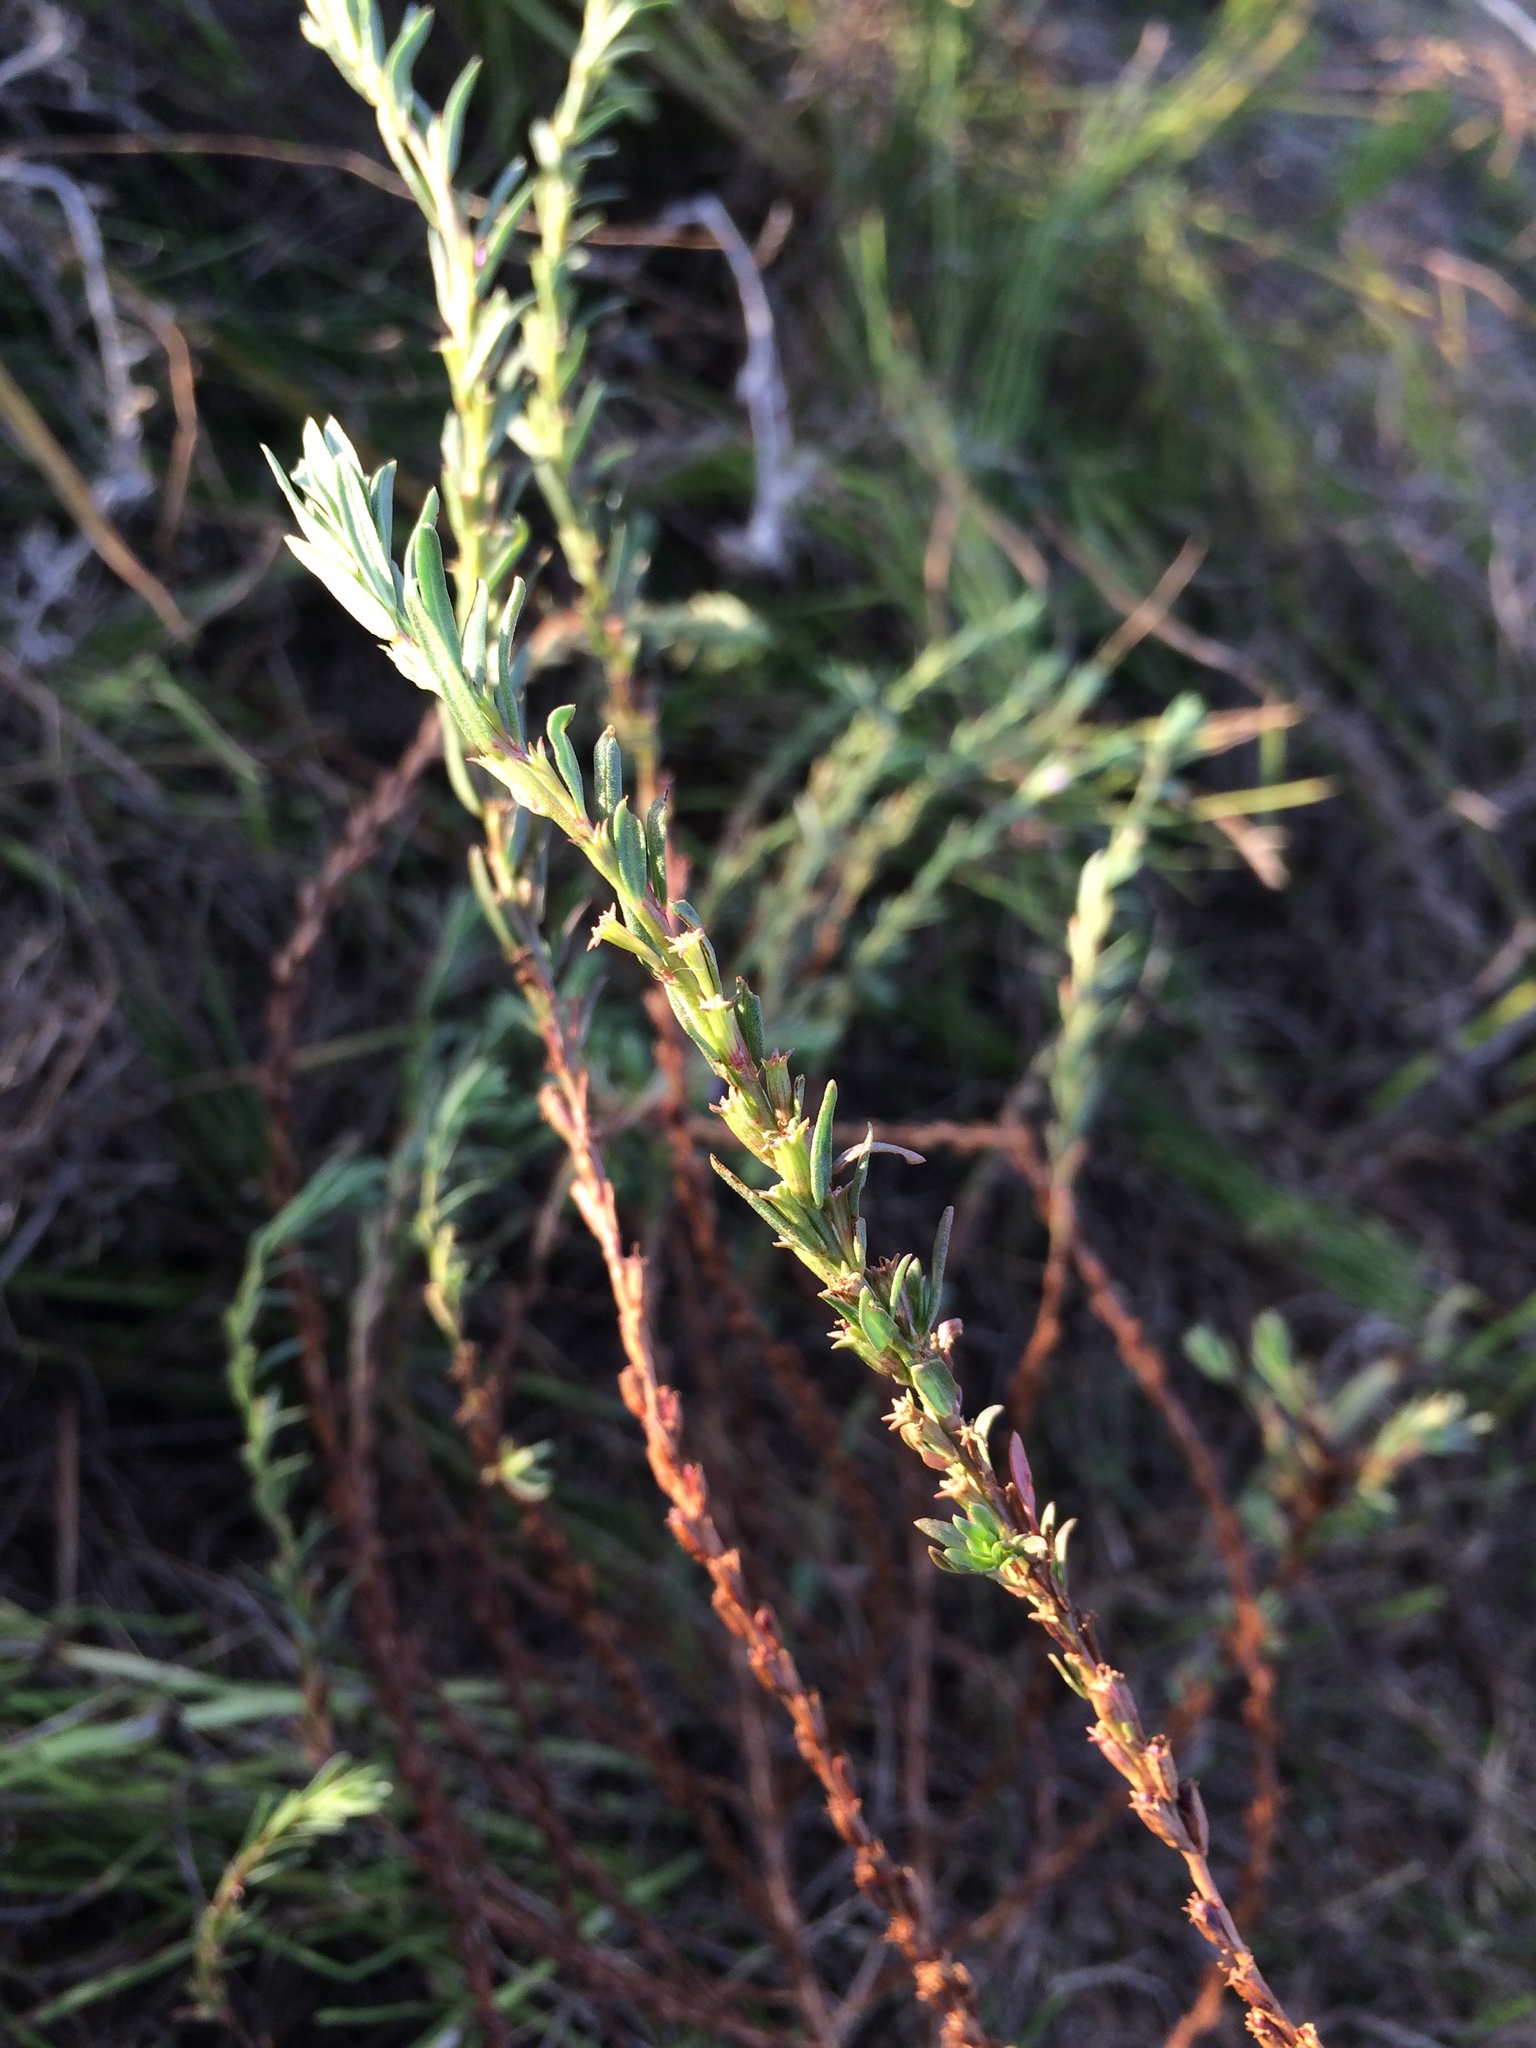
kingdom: Plantae
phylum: Tracheophyta
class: Magnoliopsida
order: Myrtales
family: Lythraceae
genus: Lythrum
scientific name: Lythrum hyssopifolia
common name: Grass-poly
